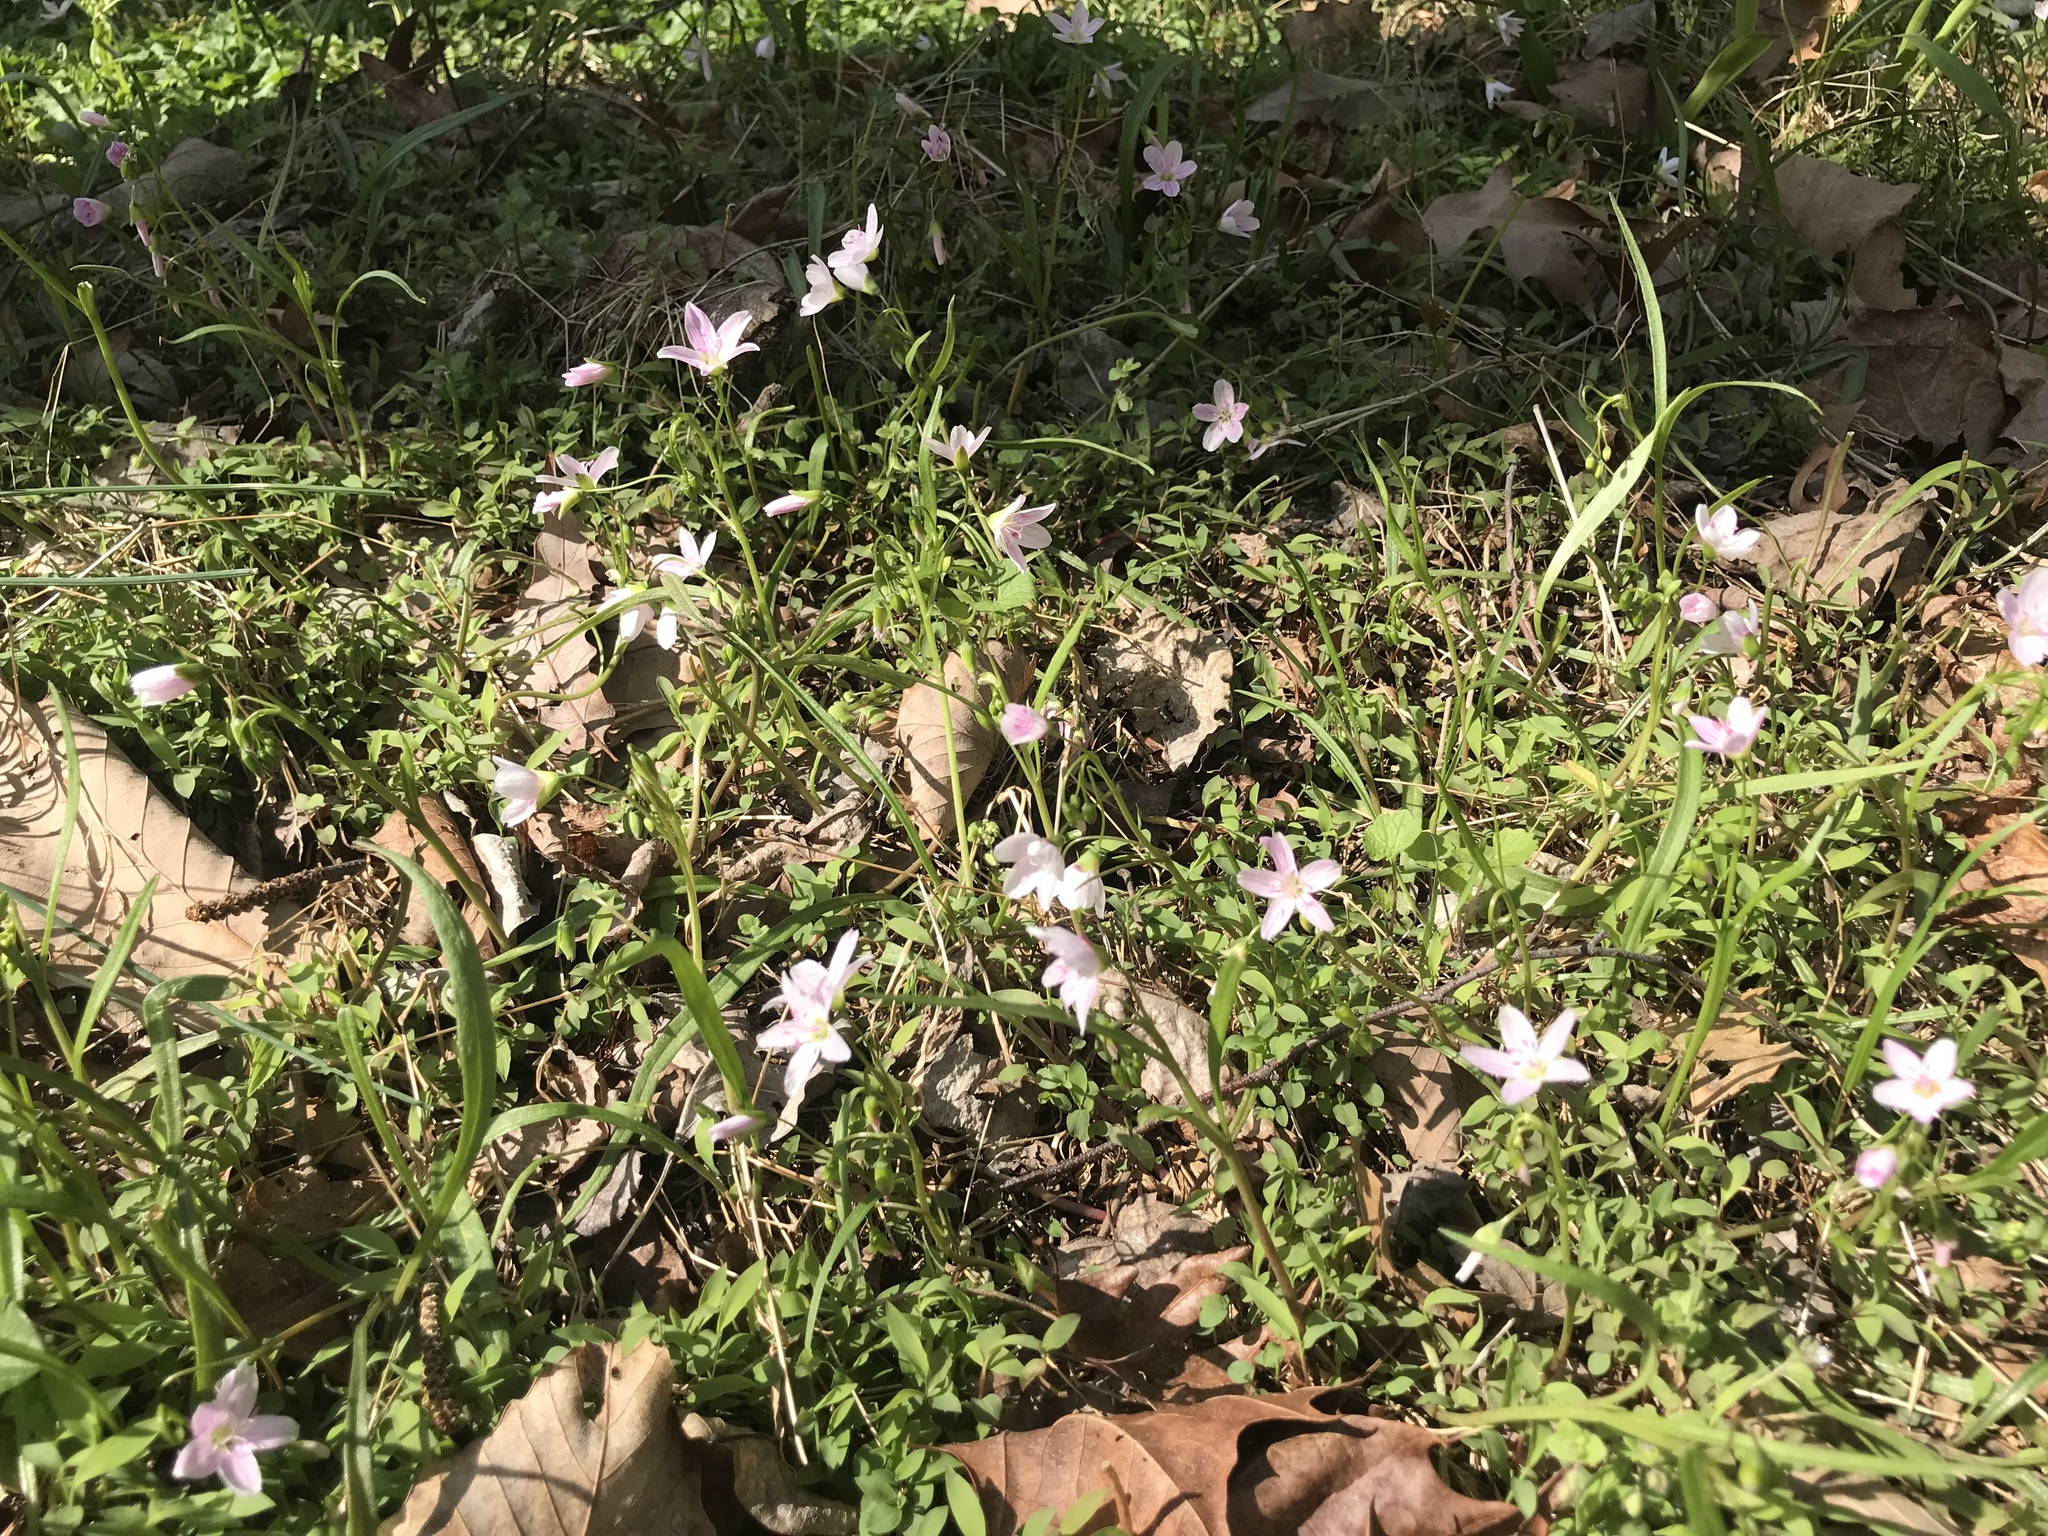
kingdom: Plantae
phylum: Tracheophyta
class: Magnoliopsida
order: Caryophyllales
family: Montiaceae
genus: Claytonia
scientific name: Claytonia virginica
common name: Virginia springbeauty
